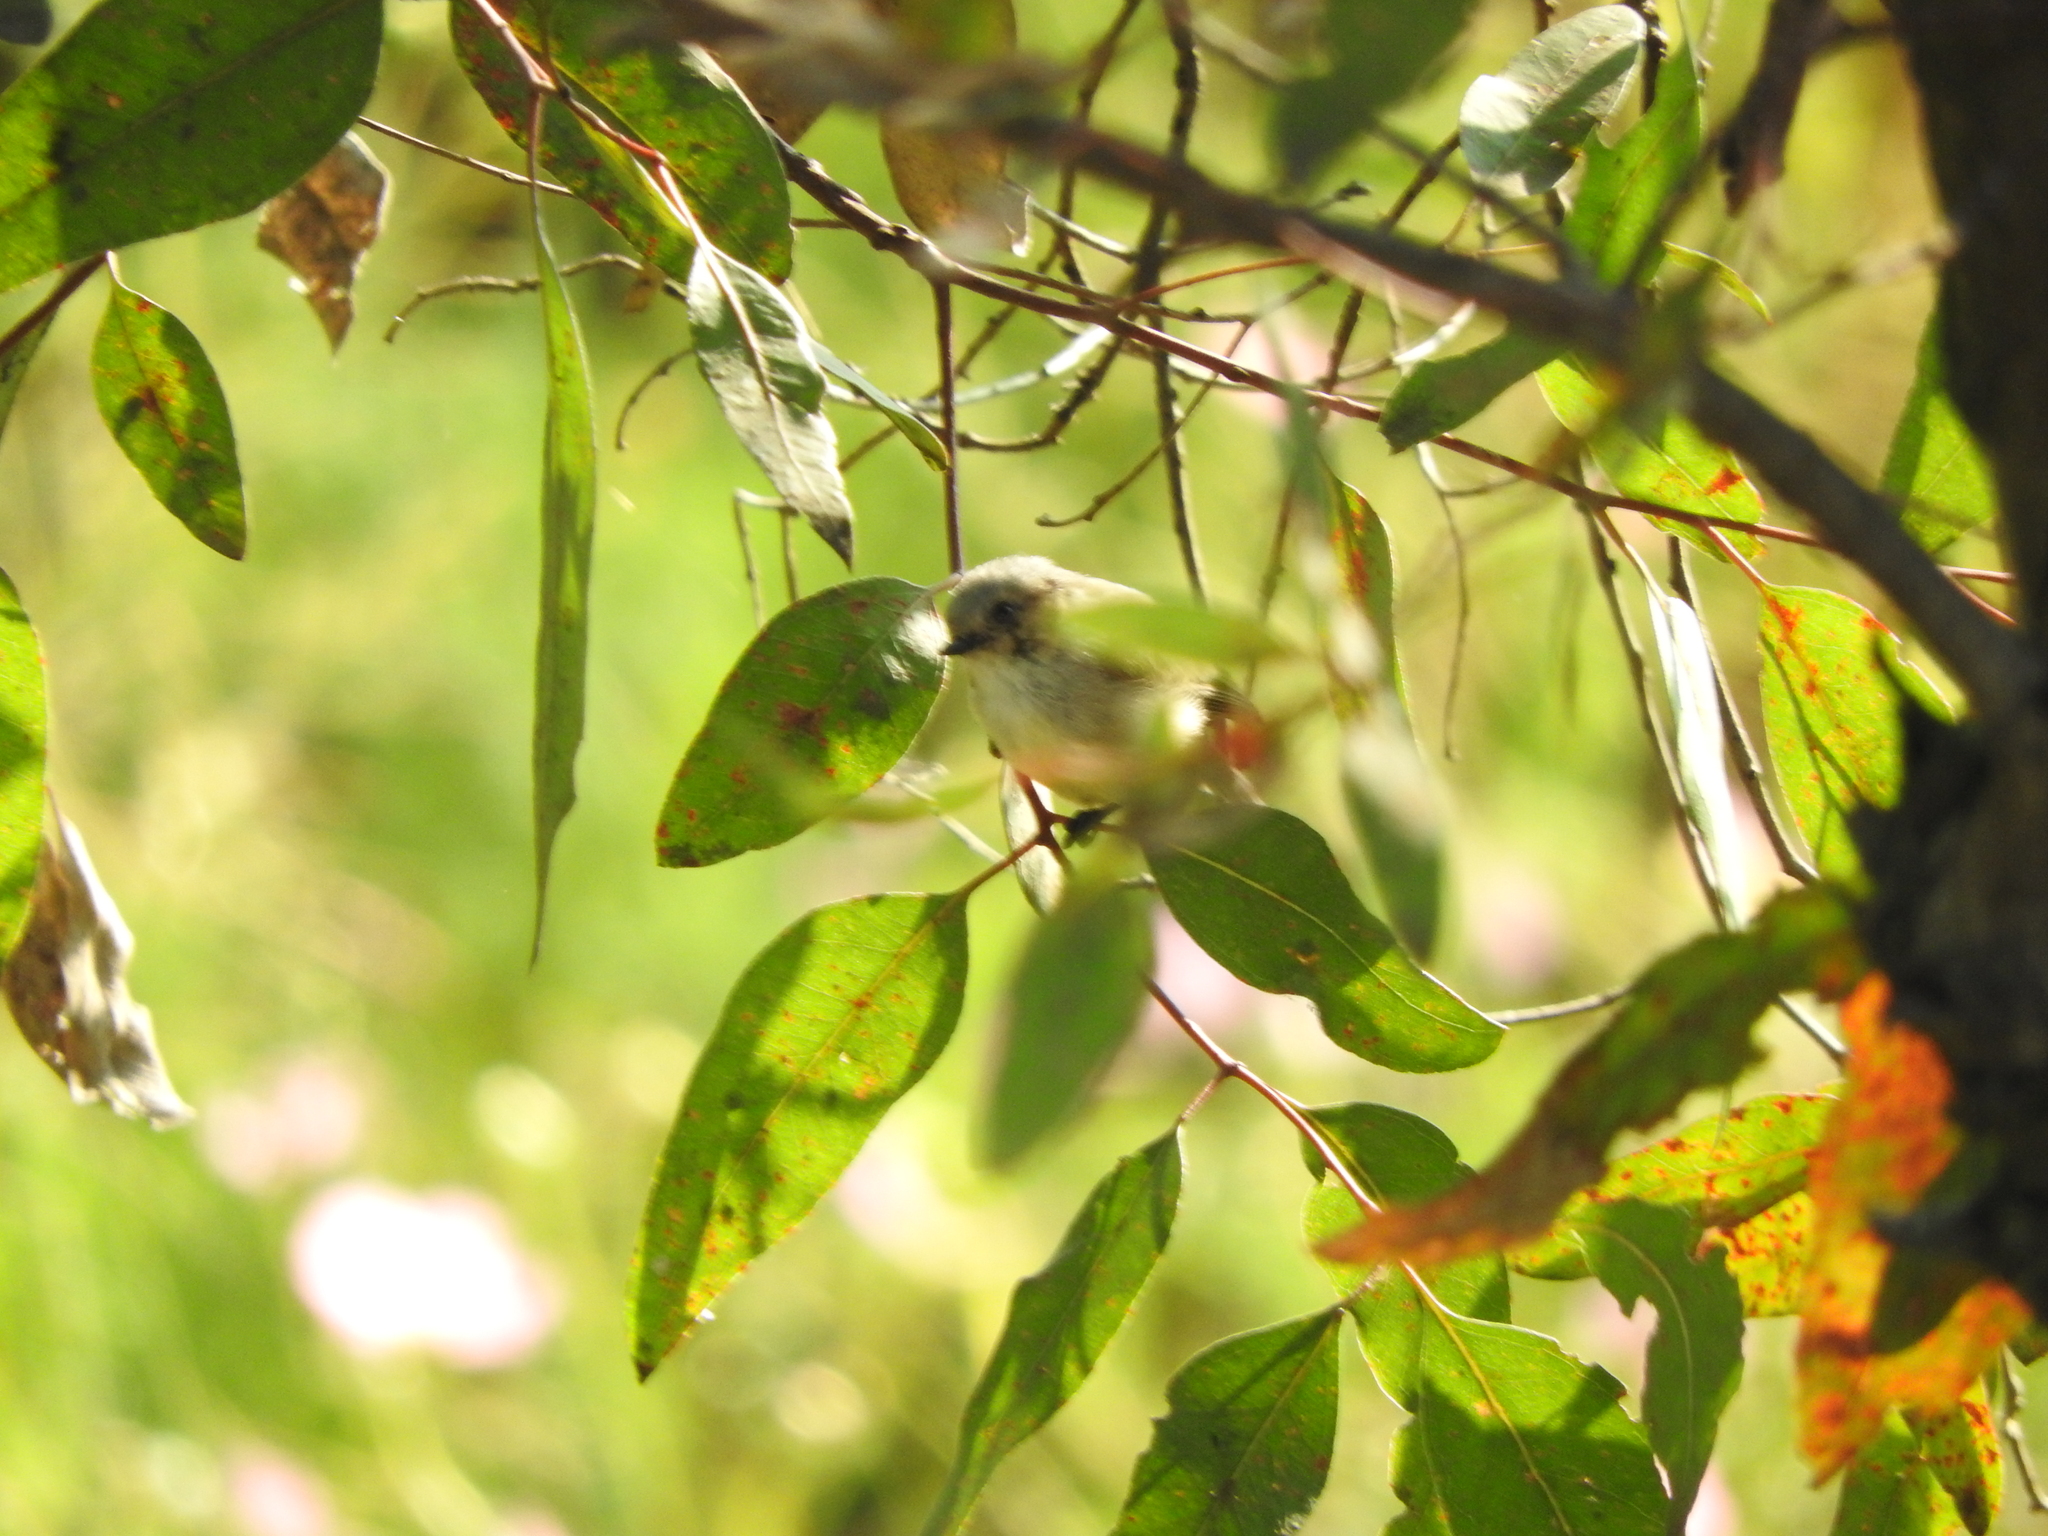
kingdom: Animalia
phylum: Chordata
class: Aves
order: Passeriformes
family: Aegithalidae
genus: Psaltriparus
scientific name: Psaltriparus minimus
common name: American bushtit
